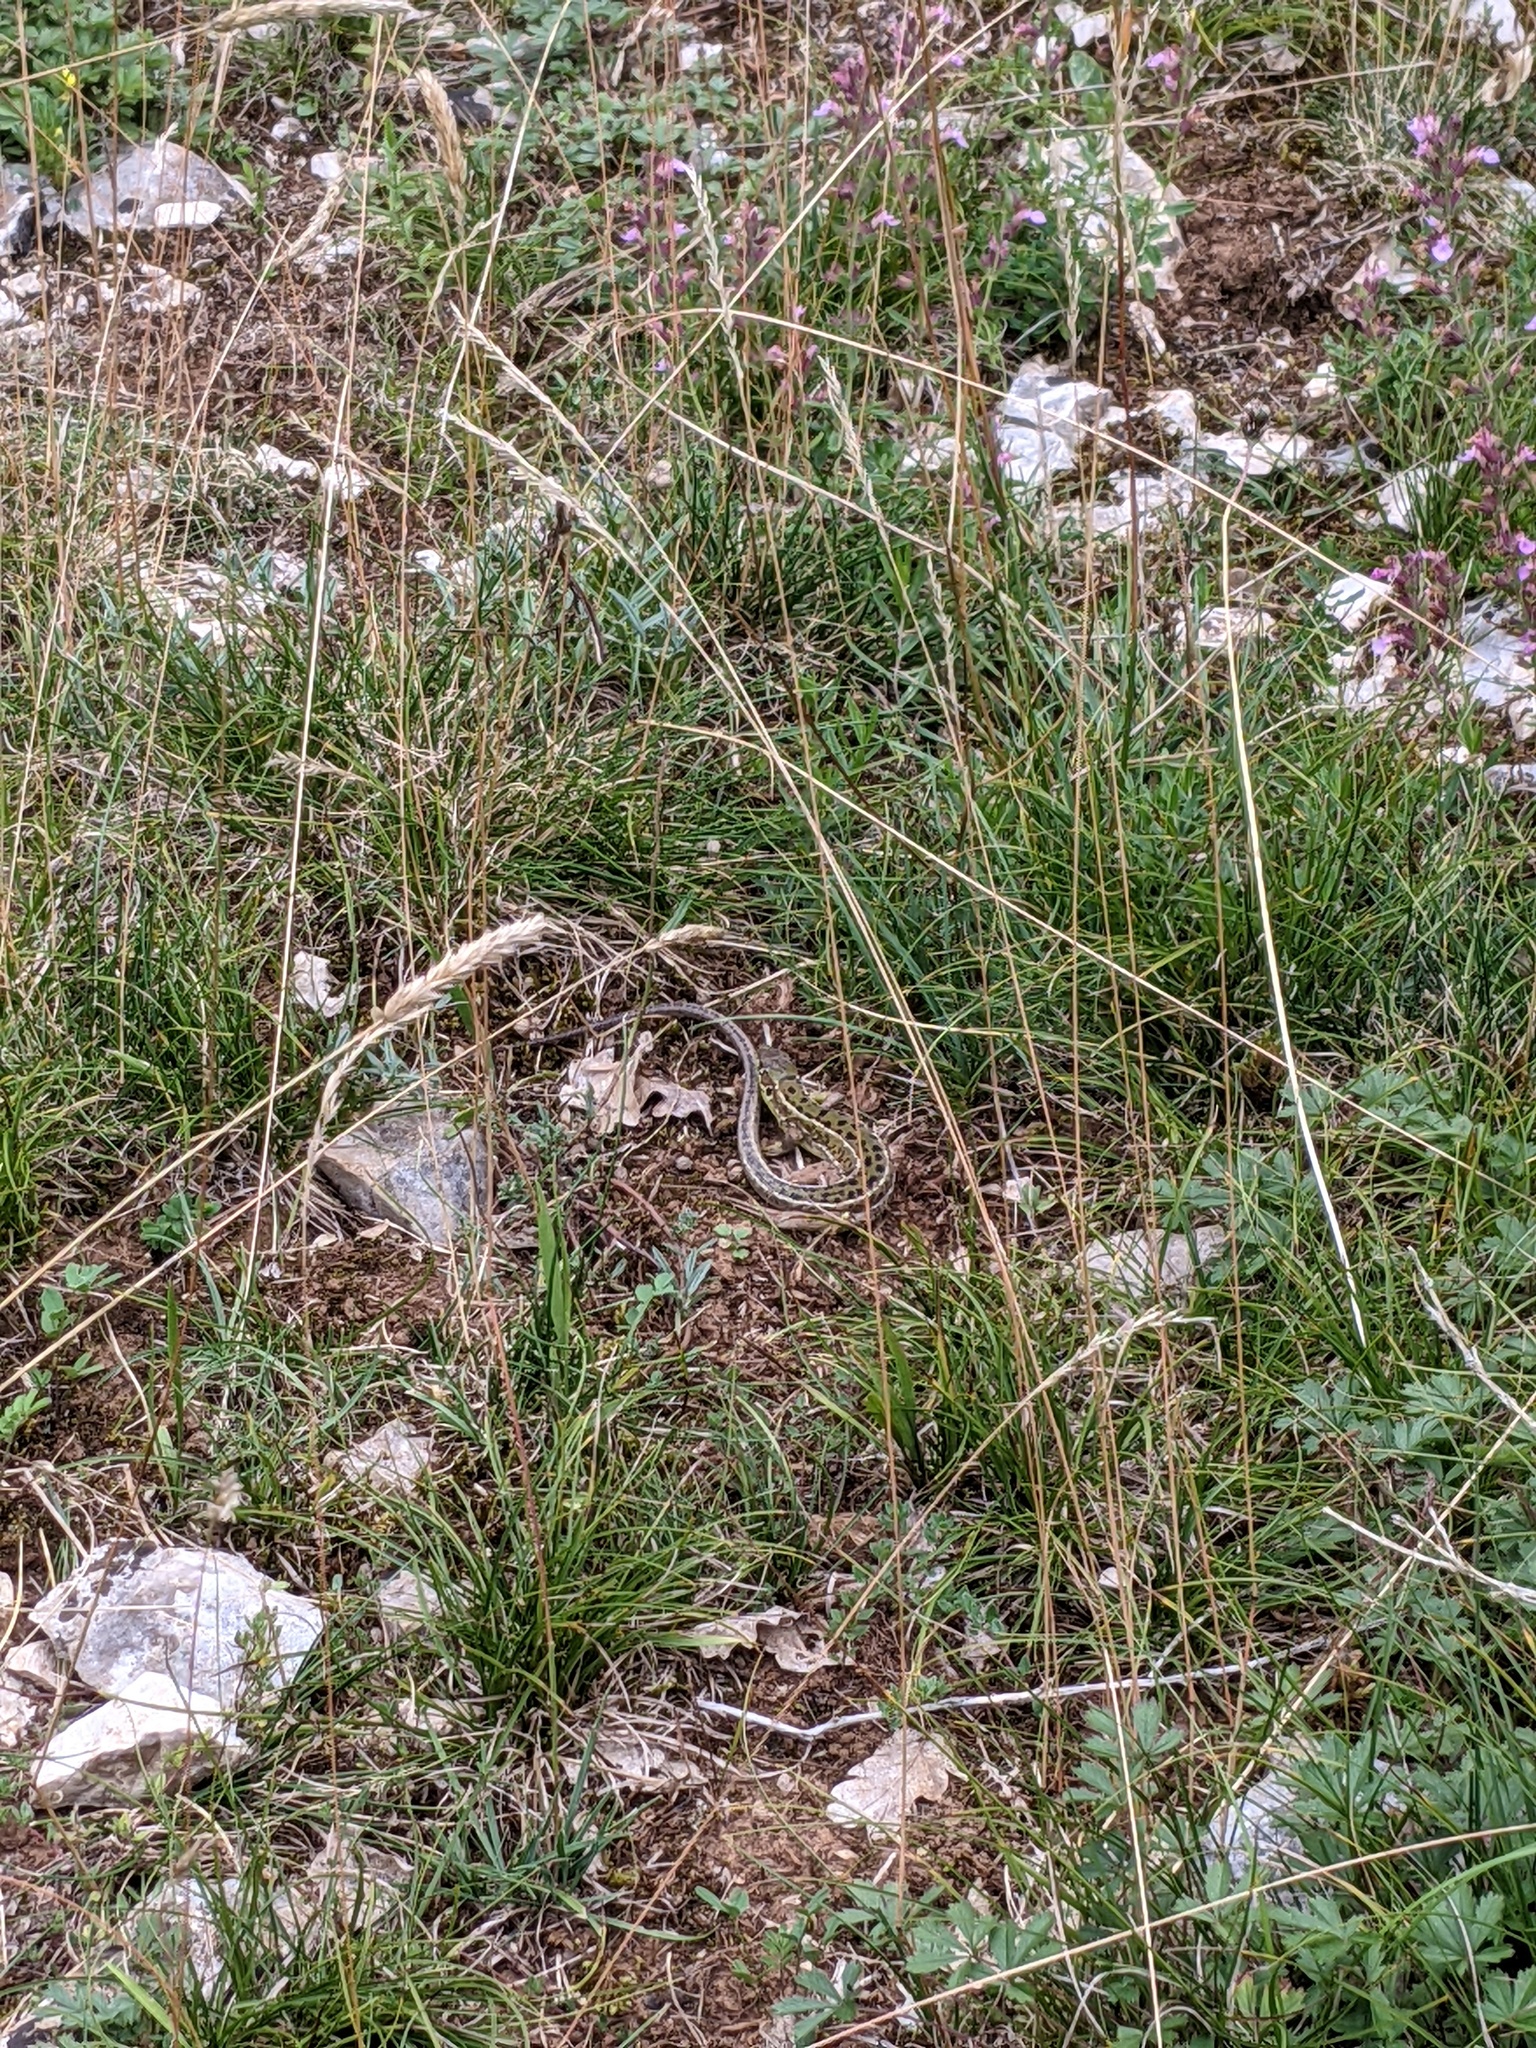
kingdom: Animalia
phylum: Chordata
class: Squamata
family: Lacertidae
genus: Lacerta
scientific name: Lacerta bilineata
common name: Western green lizard
